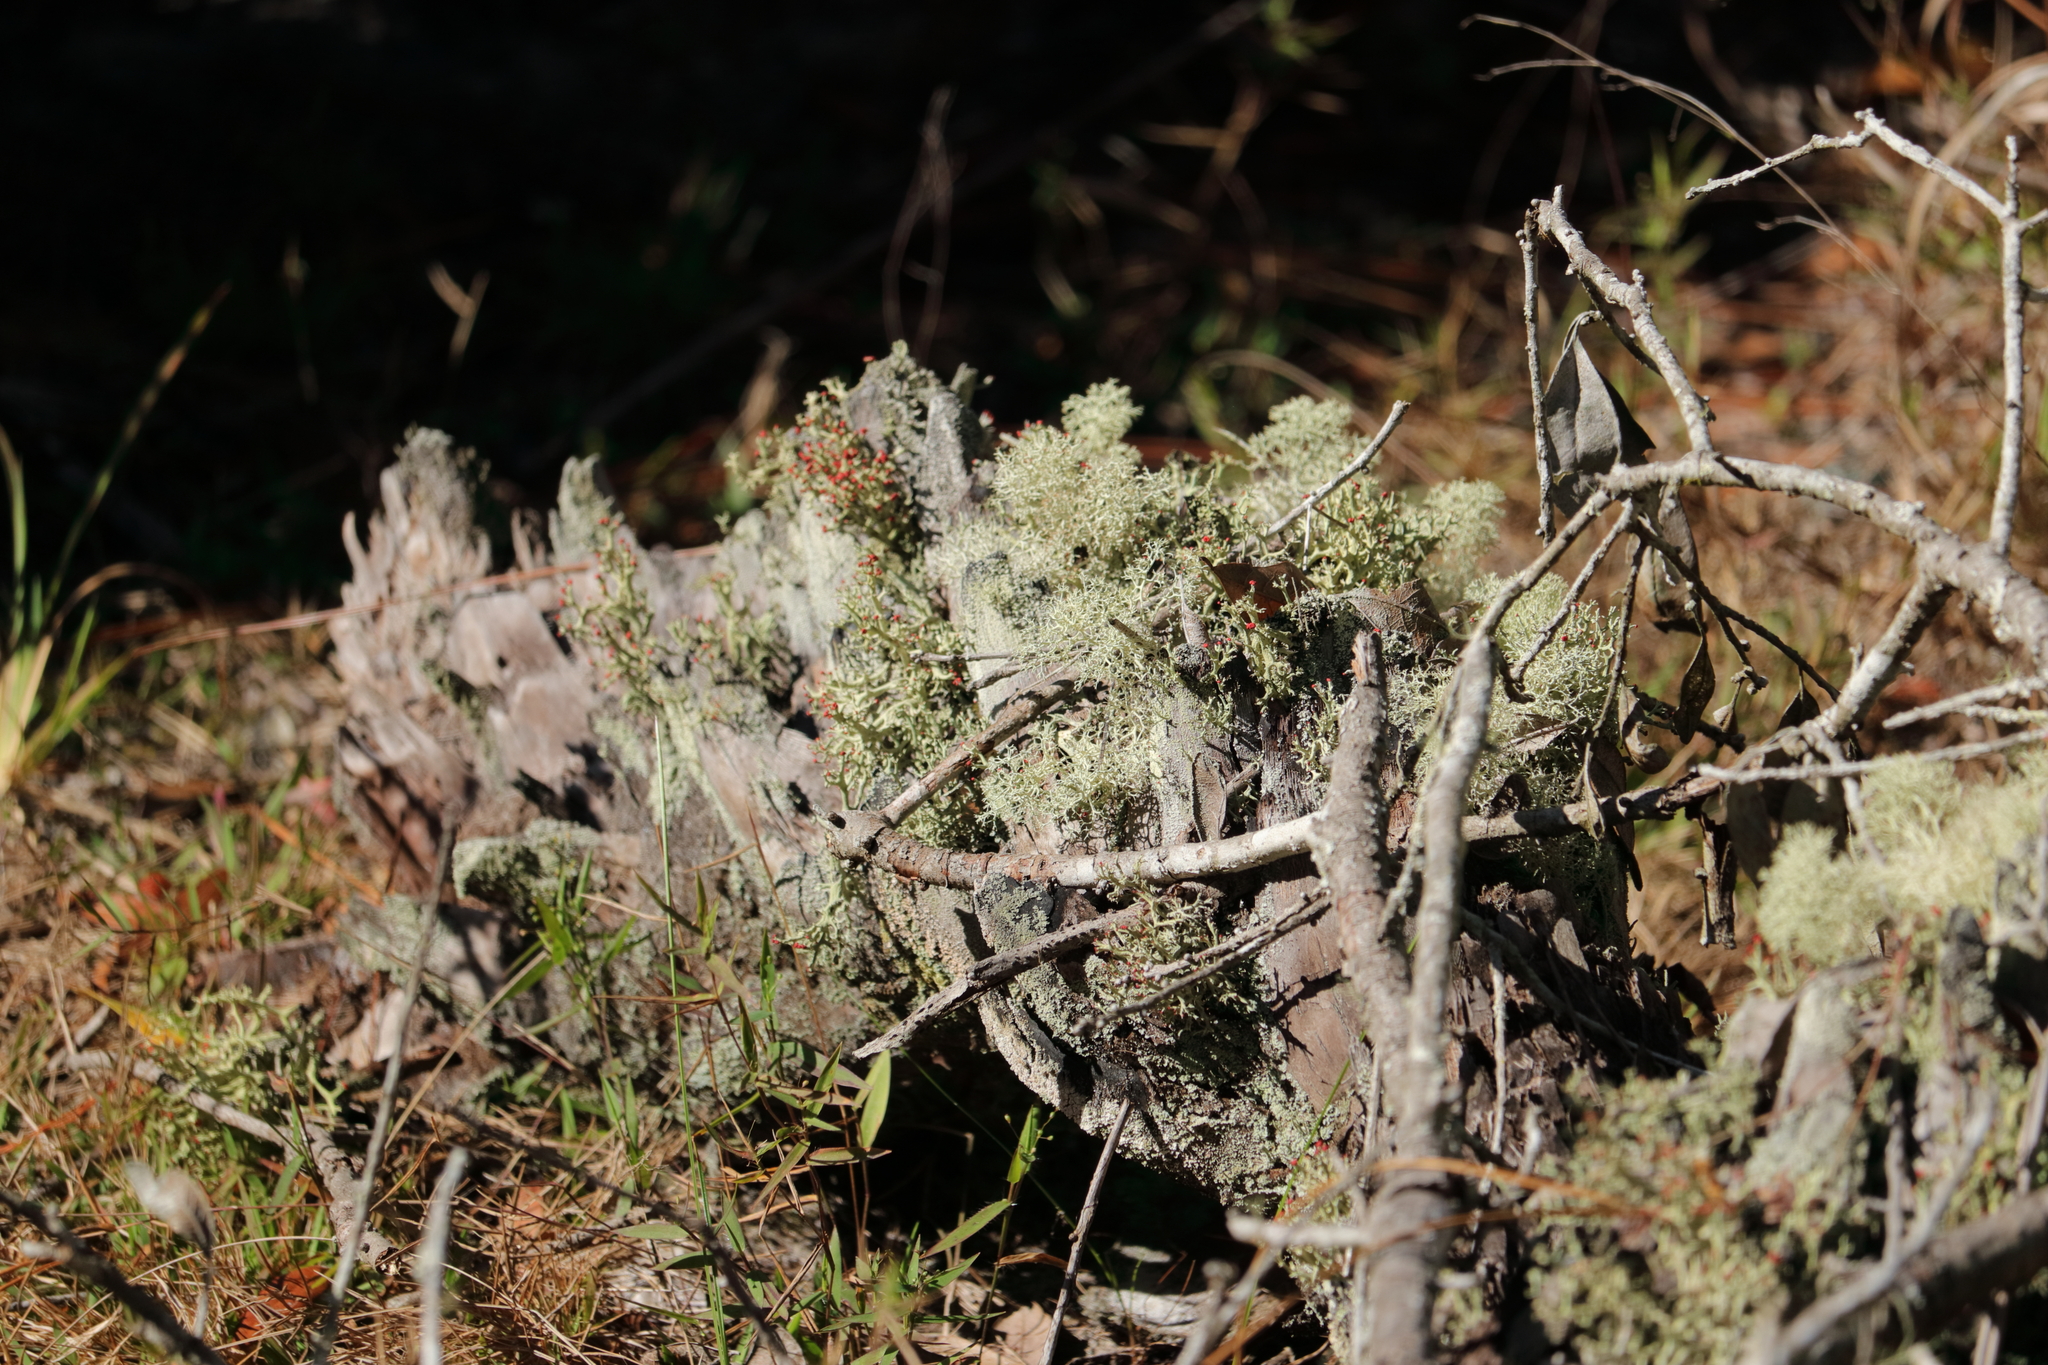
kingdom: Fungi
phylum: Ascomycota
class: Lecanoromycetes
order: Lecanorales
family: Cladoniaceae
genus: Cladonia
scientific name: Cladonia
